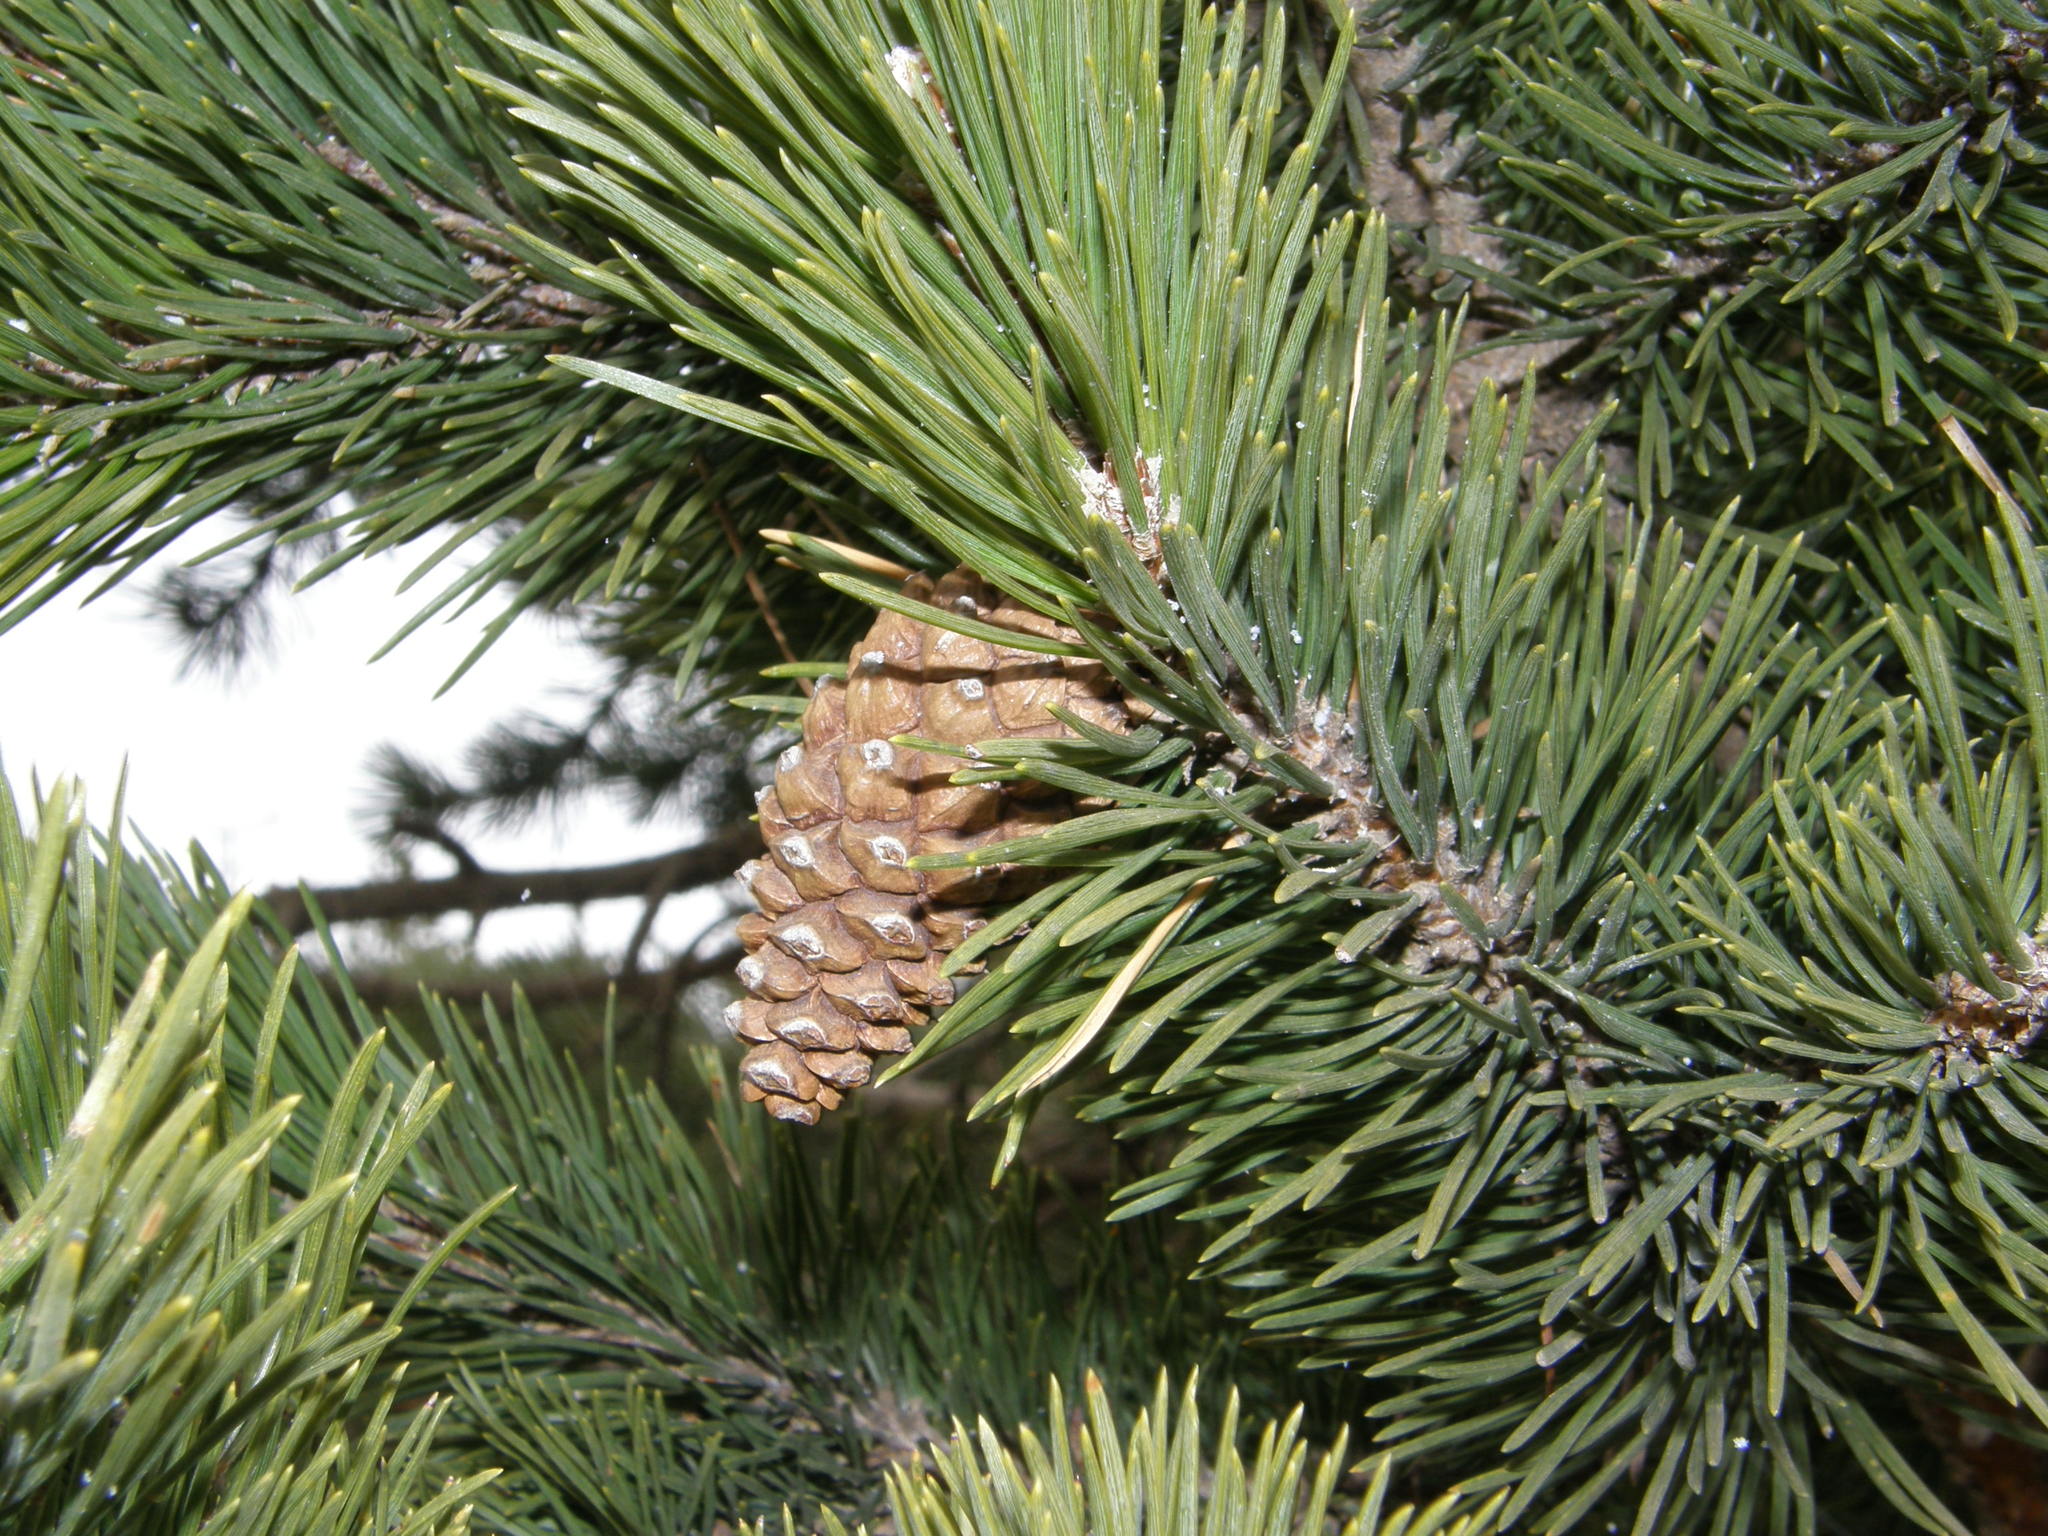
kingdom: Plantae
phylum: Tracheophyta
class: Pinopsida
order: Pinales
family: Pinaceae
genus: Pinus
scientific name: Pinus uncinata
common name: Mountain pine
